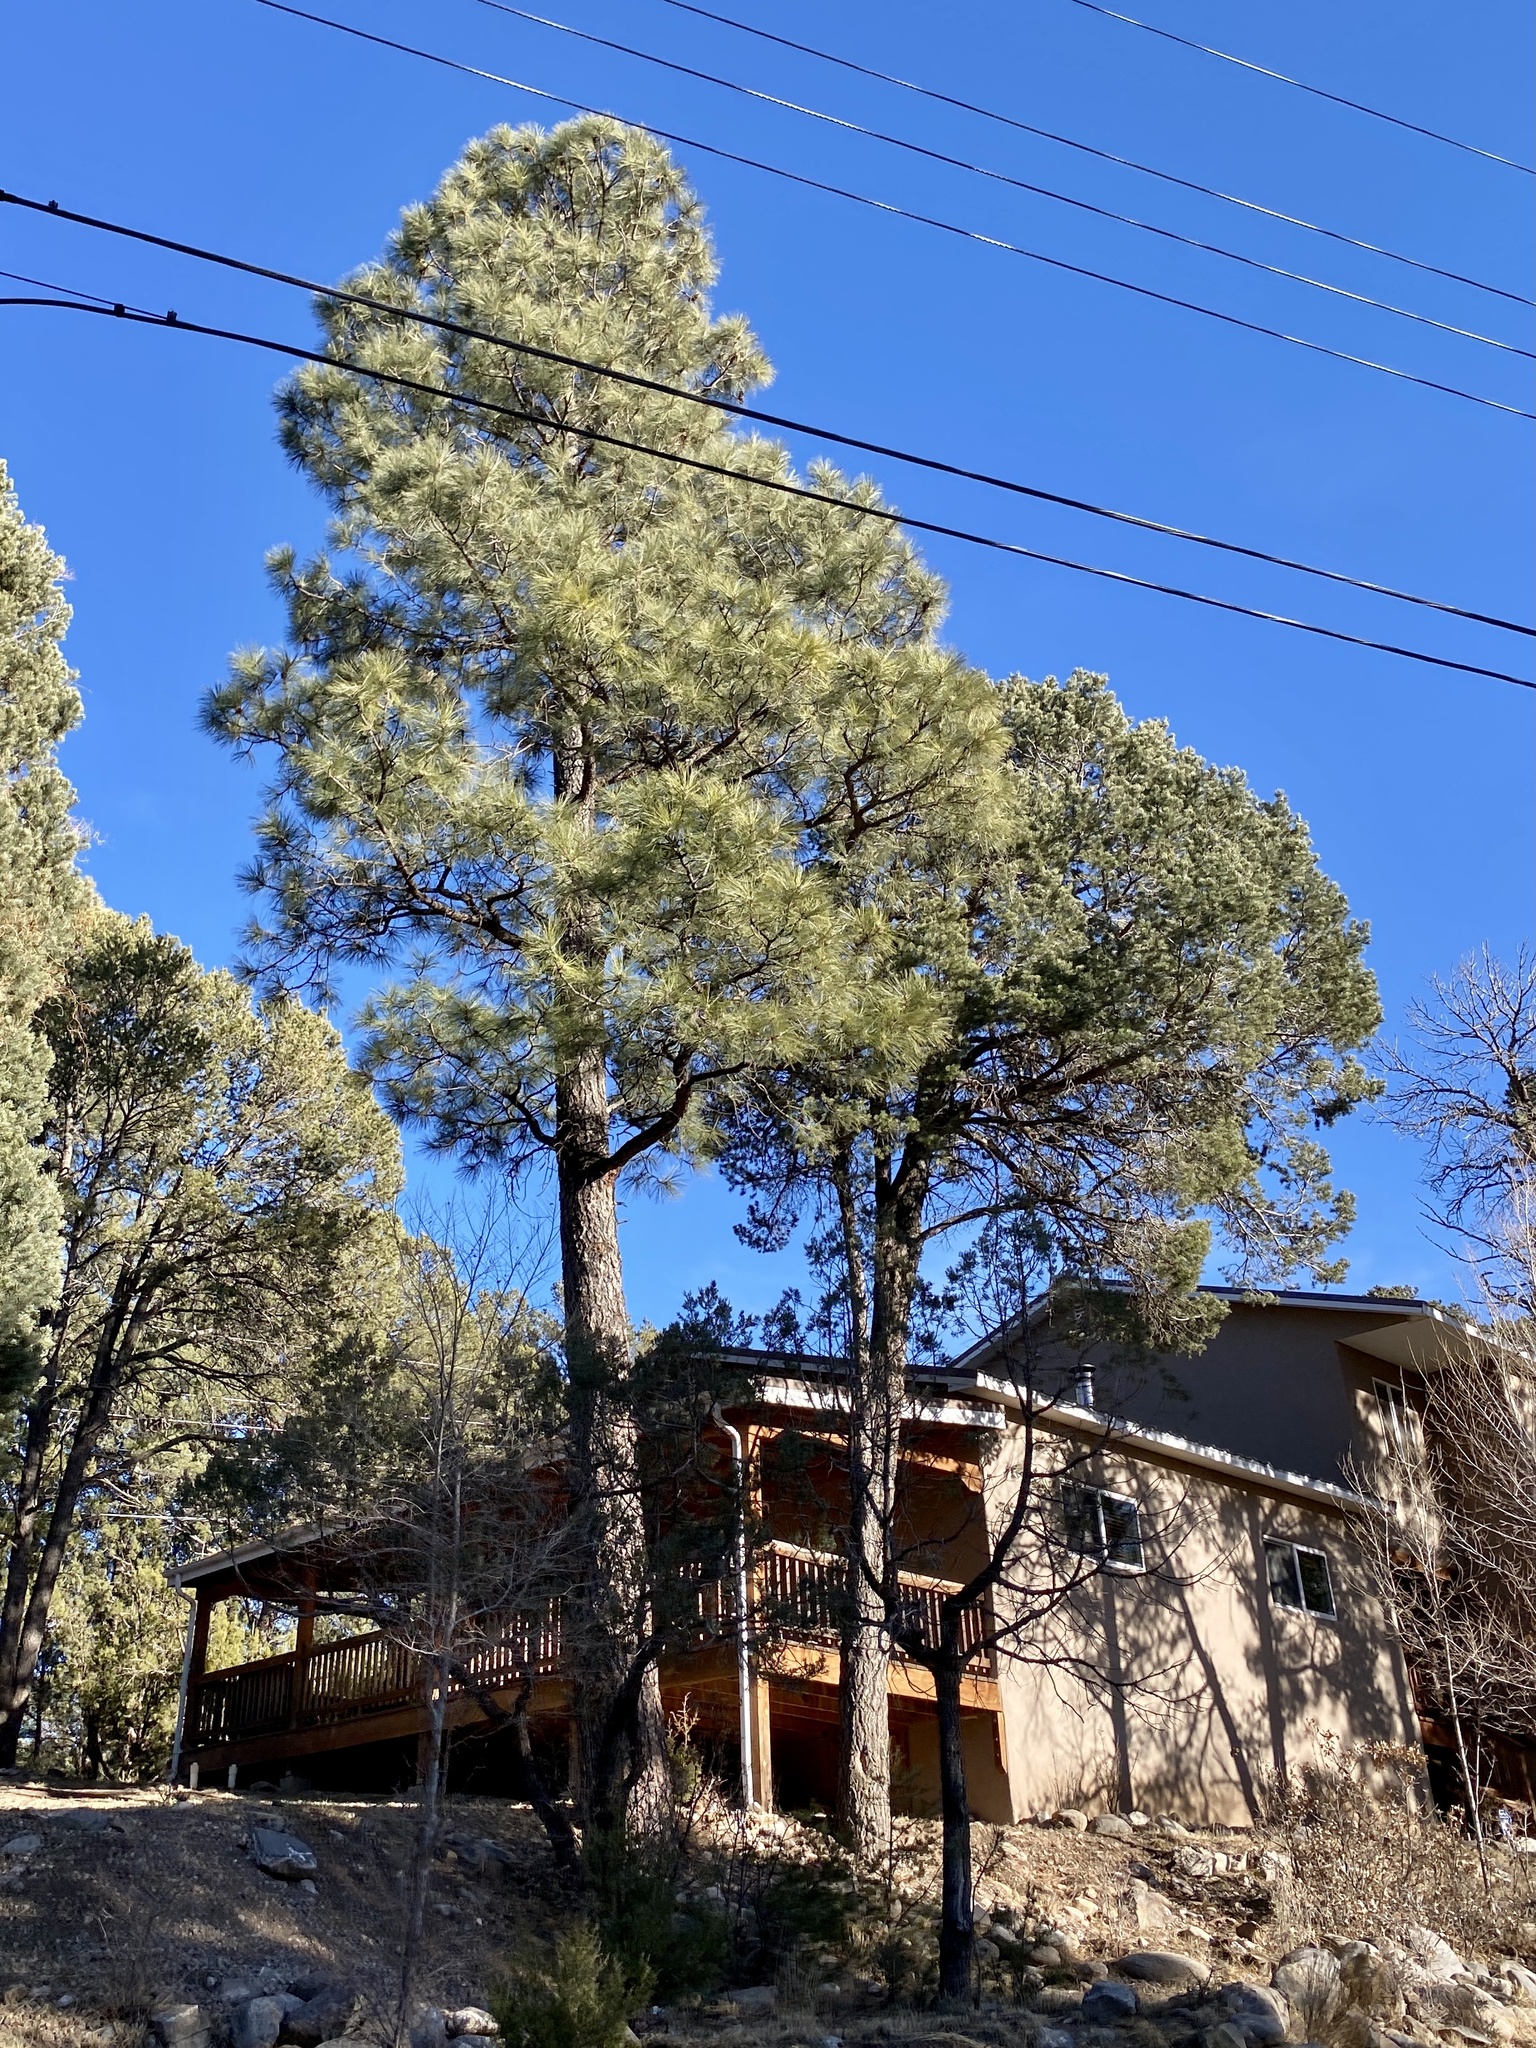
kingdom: Plantae
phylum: Tracheophyta
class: Pinopsida
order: Pinales
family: Pinaceae
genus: Pinus
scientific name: Pinus ponderosa
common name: Western yellow-pine
